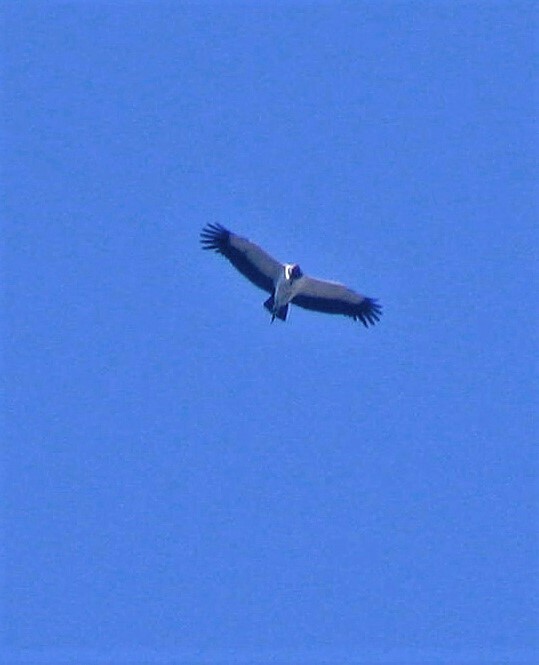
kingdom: Animalia
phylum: Chordata
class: Aves
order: Accipitriformes
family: Cathartidae
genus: Sarcoramphus
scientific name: Sarcoramphus papa
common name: King vulture
